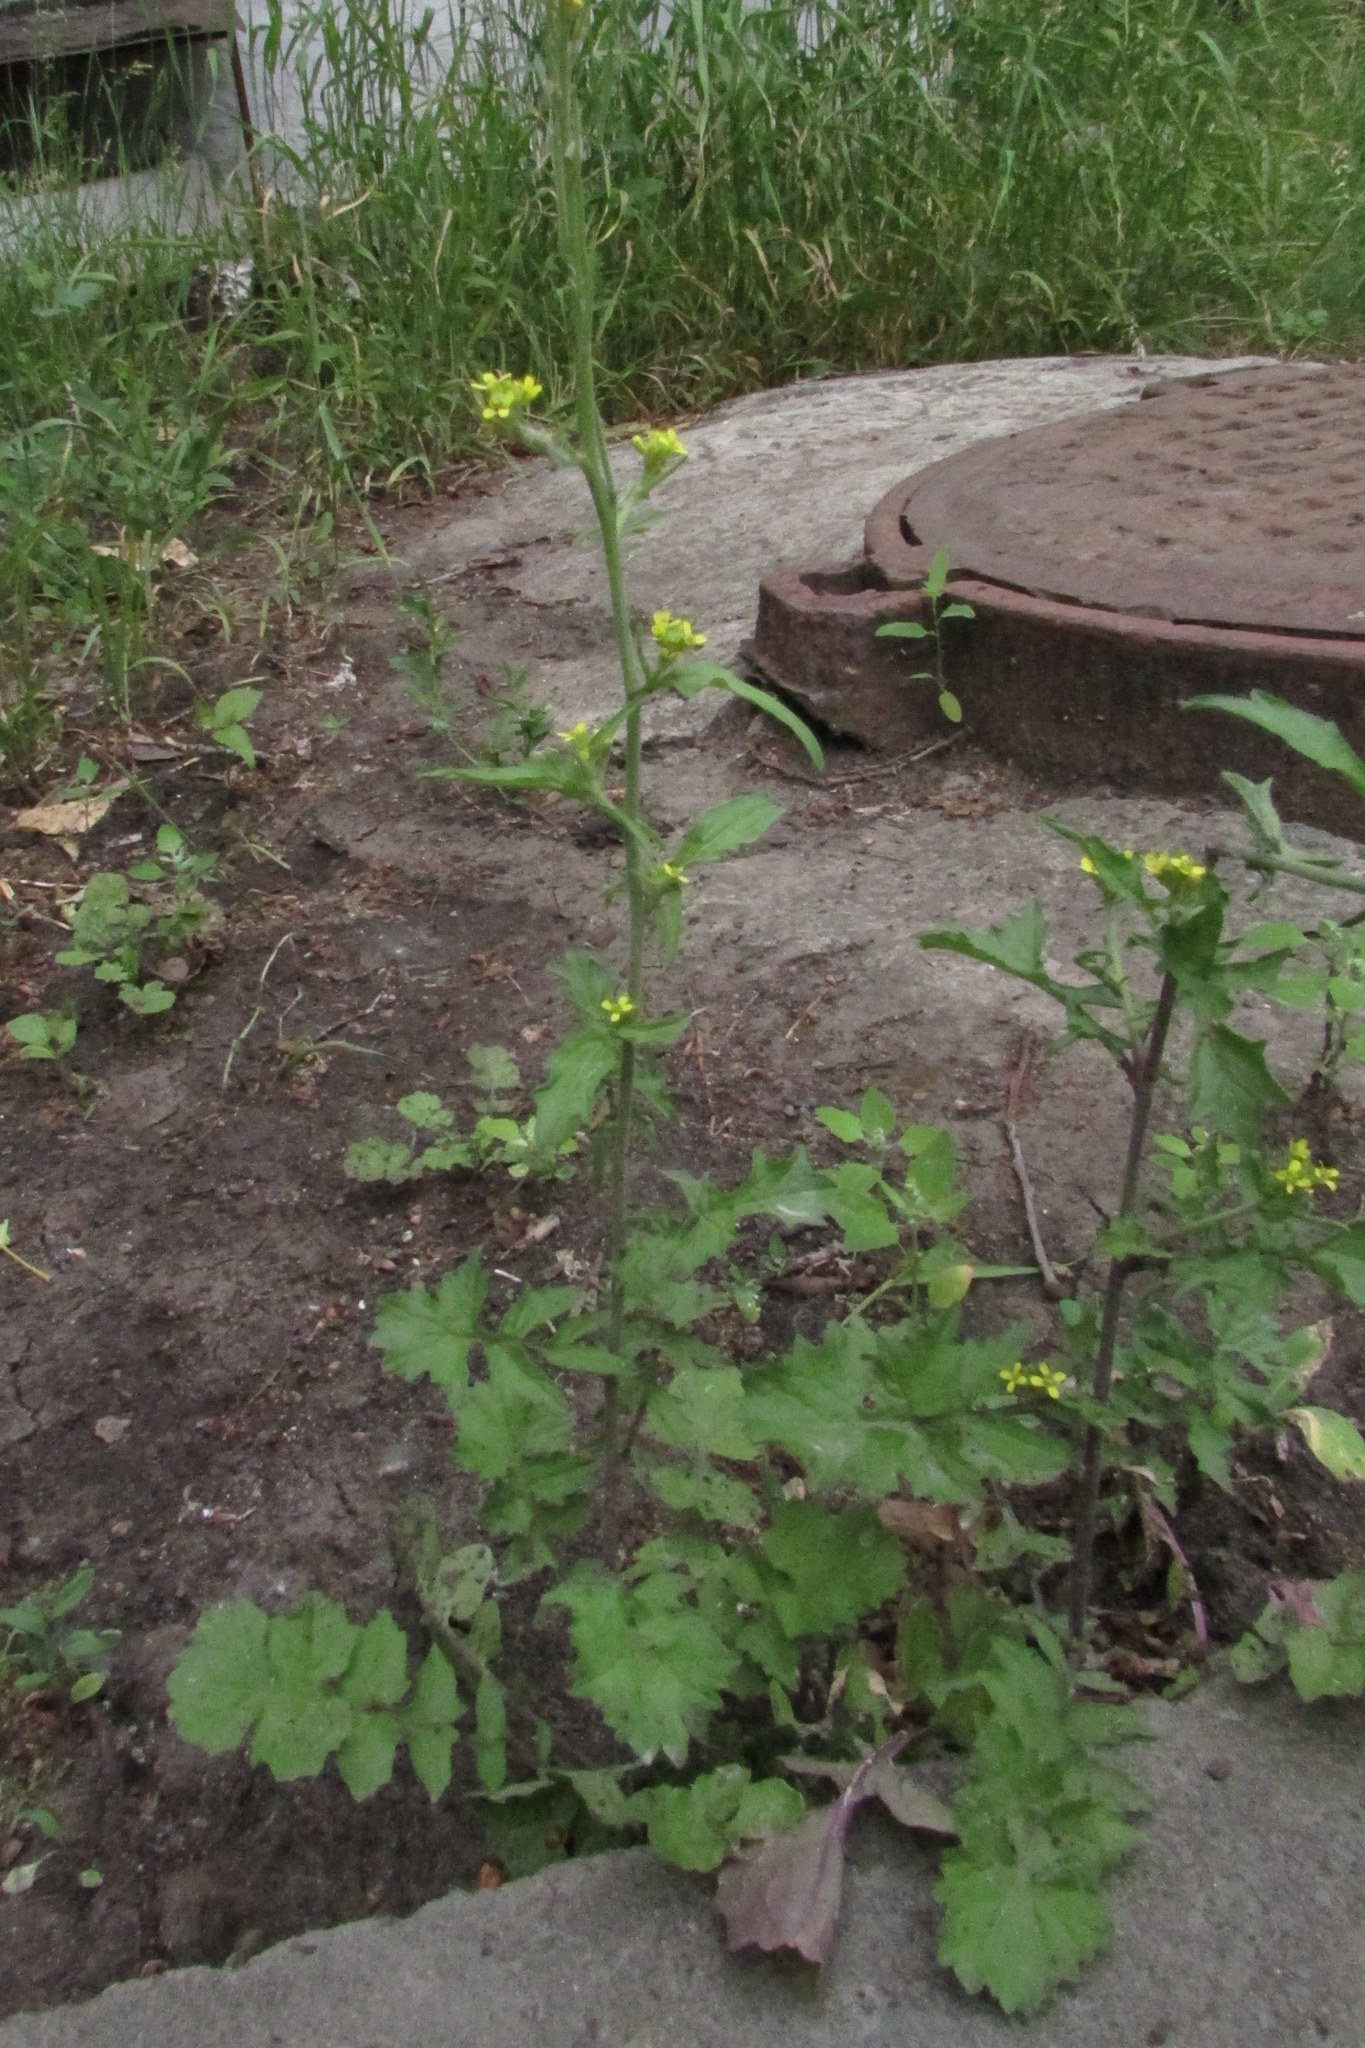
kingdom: Plantae
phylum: Tracheophyta
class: Magnoliopsida
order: Brassicales
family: Brassicaceae
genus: Sisymbrium
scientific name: Sisymbrium officinale
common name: Hedge mustard
